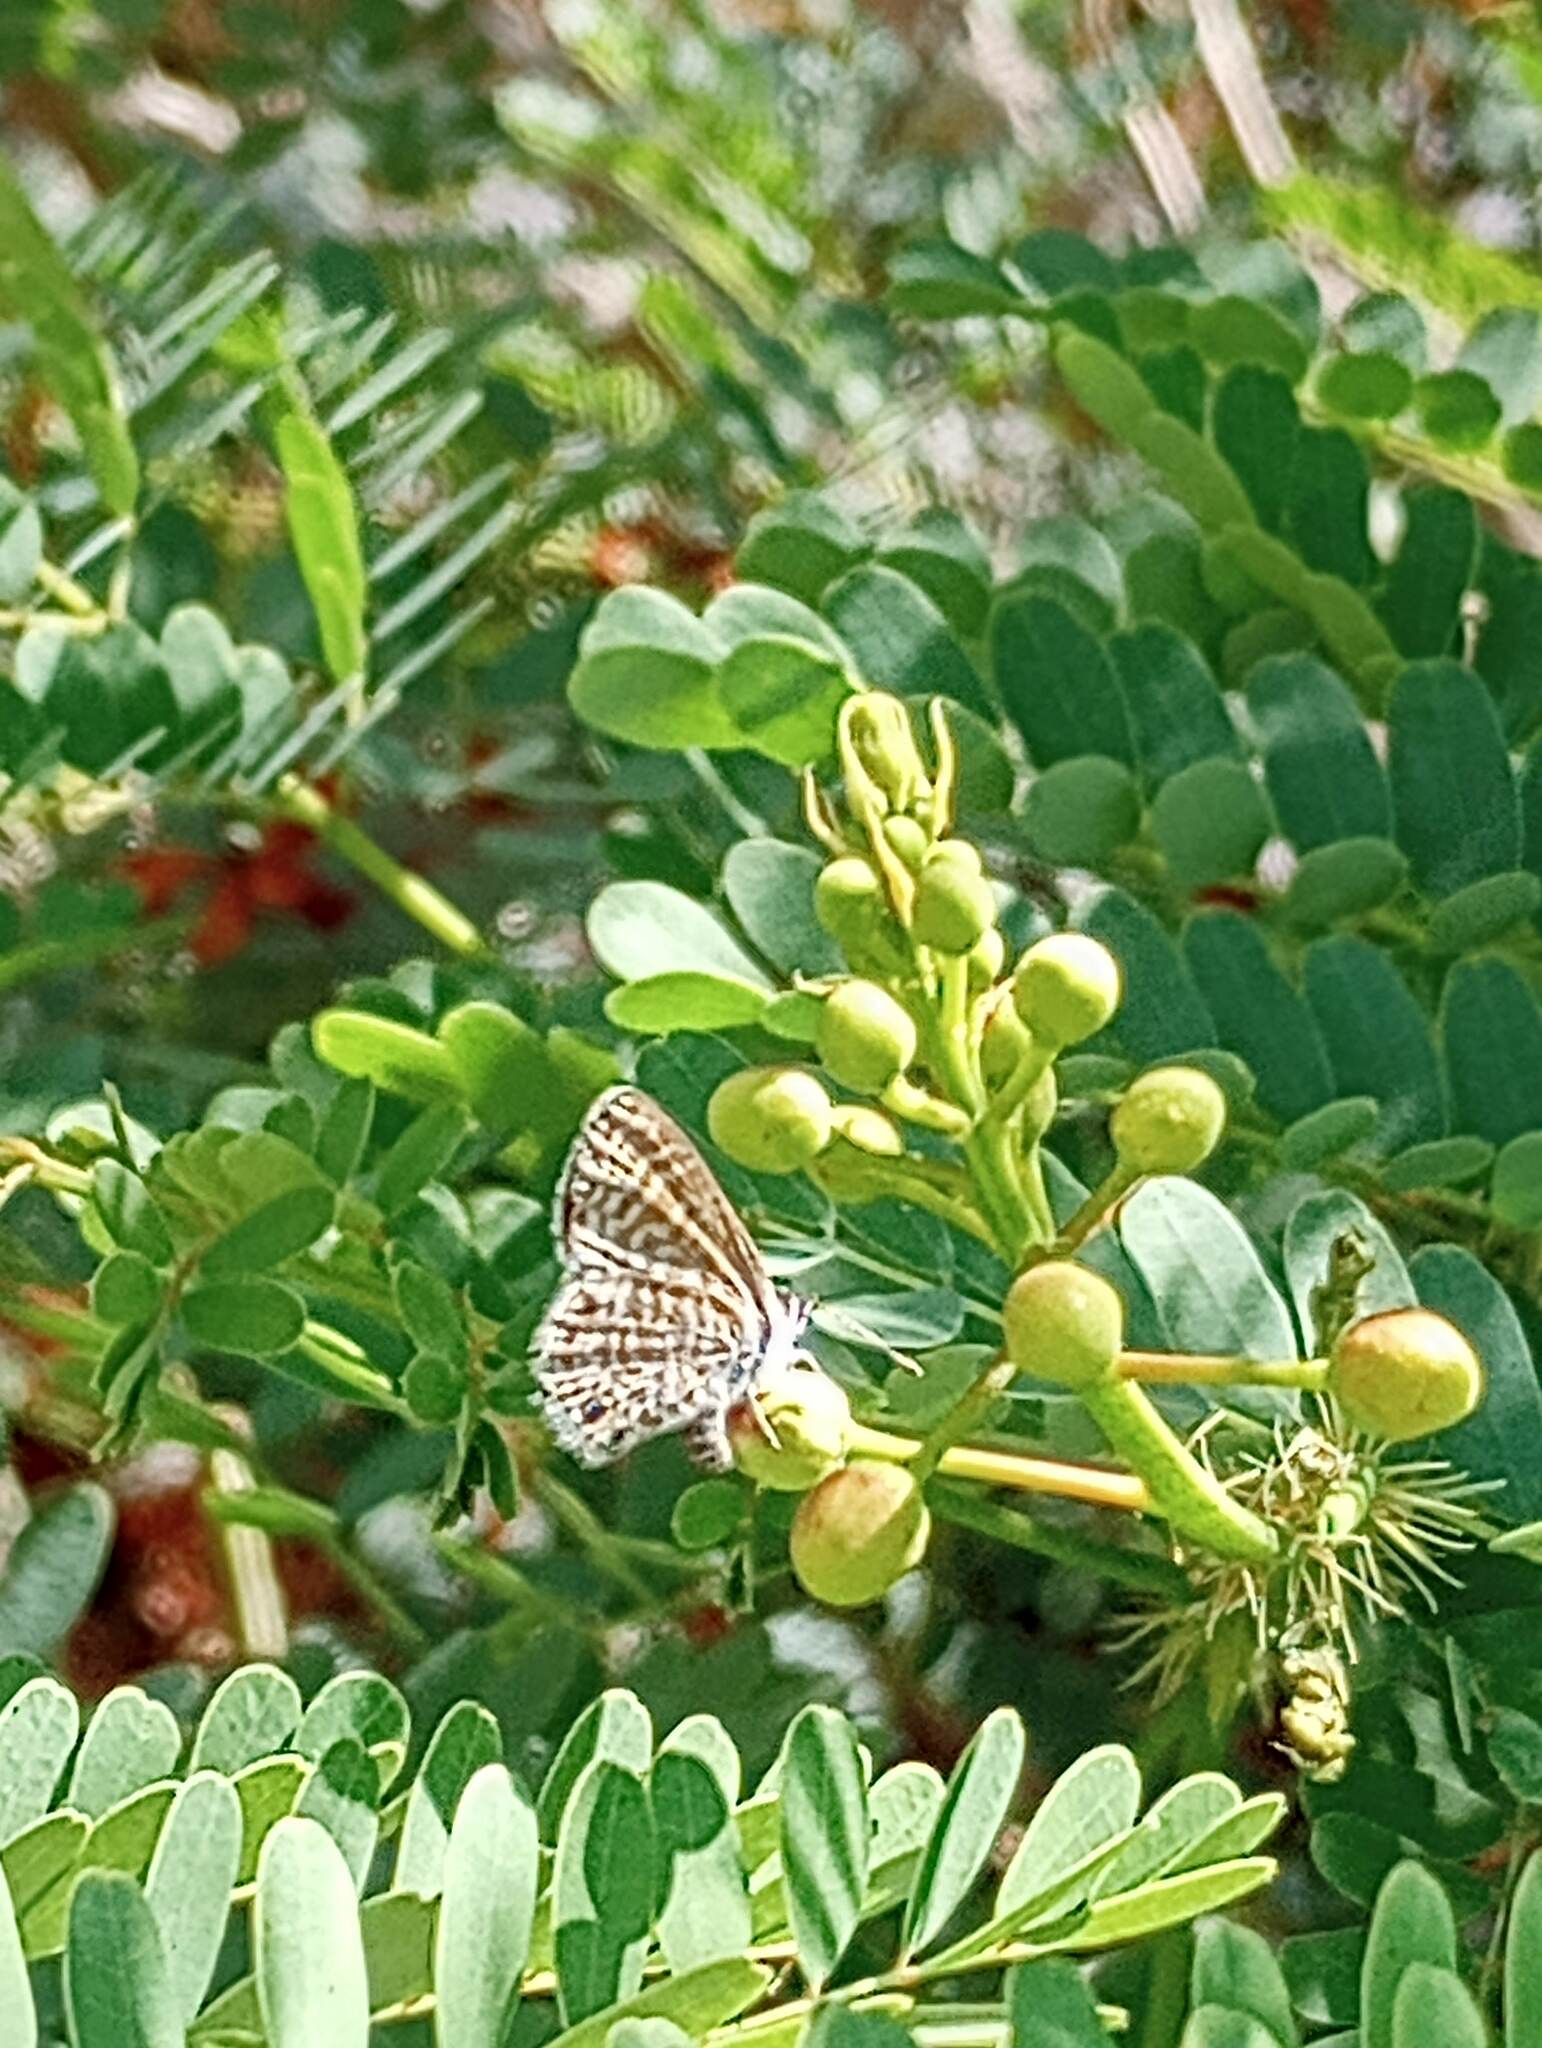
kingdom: Animalia
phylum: Arthropoda
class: Insecta
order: Lepidoptera
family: Lycaenidae
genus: Leptotes
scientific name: Leptotes marina
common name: Marine blue
